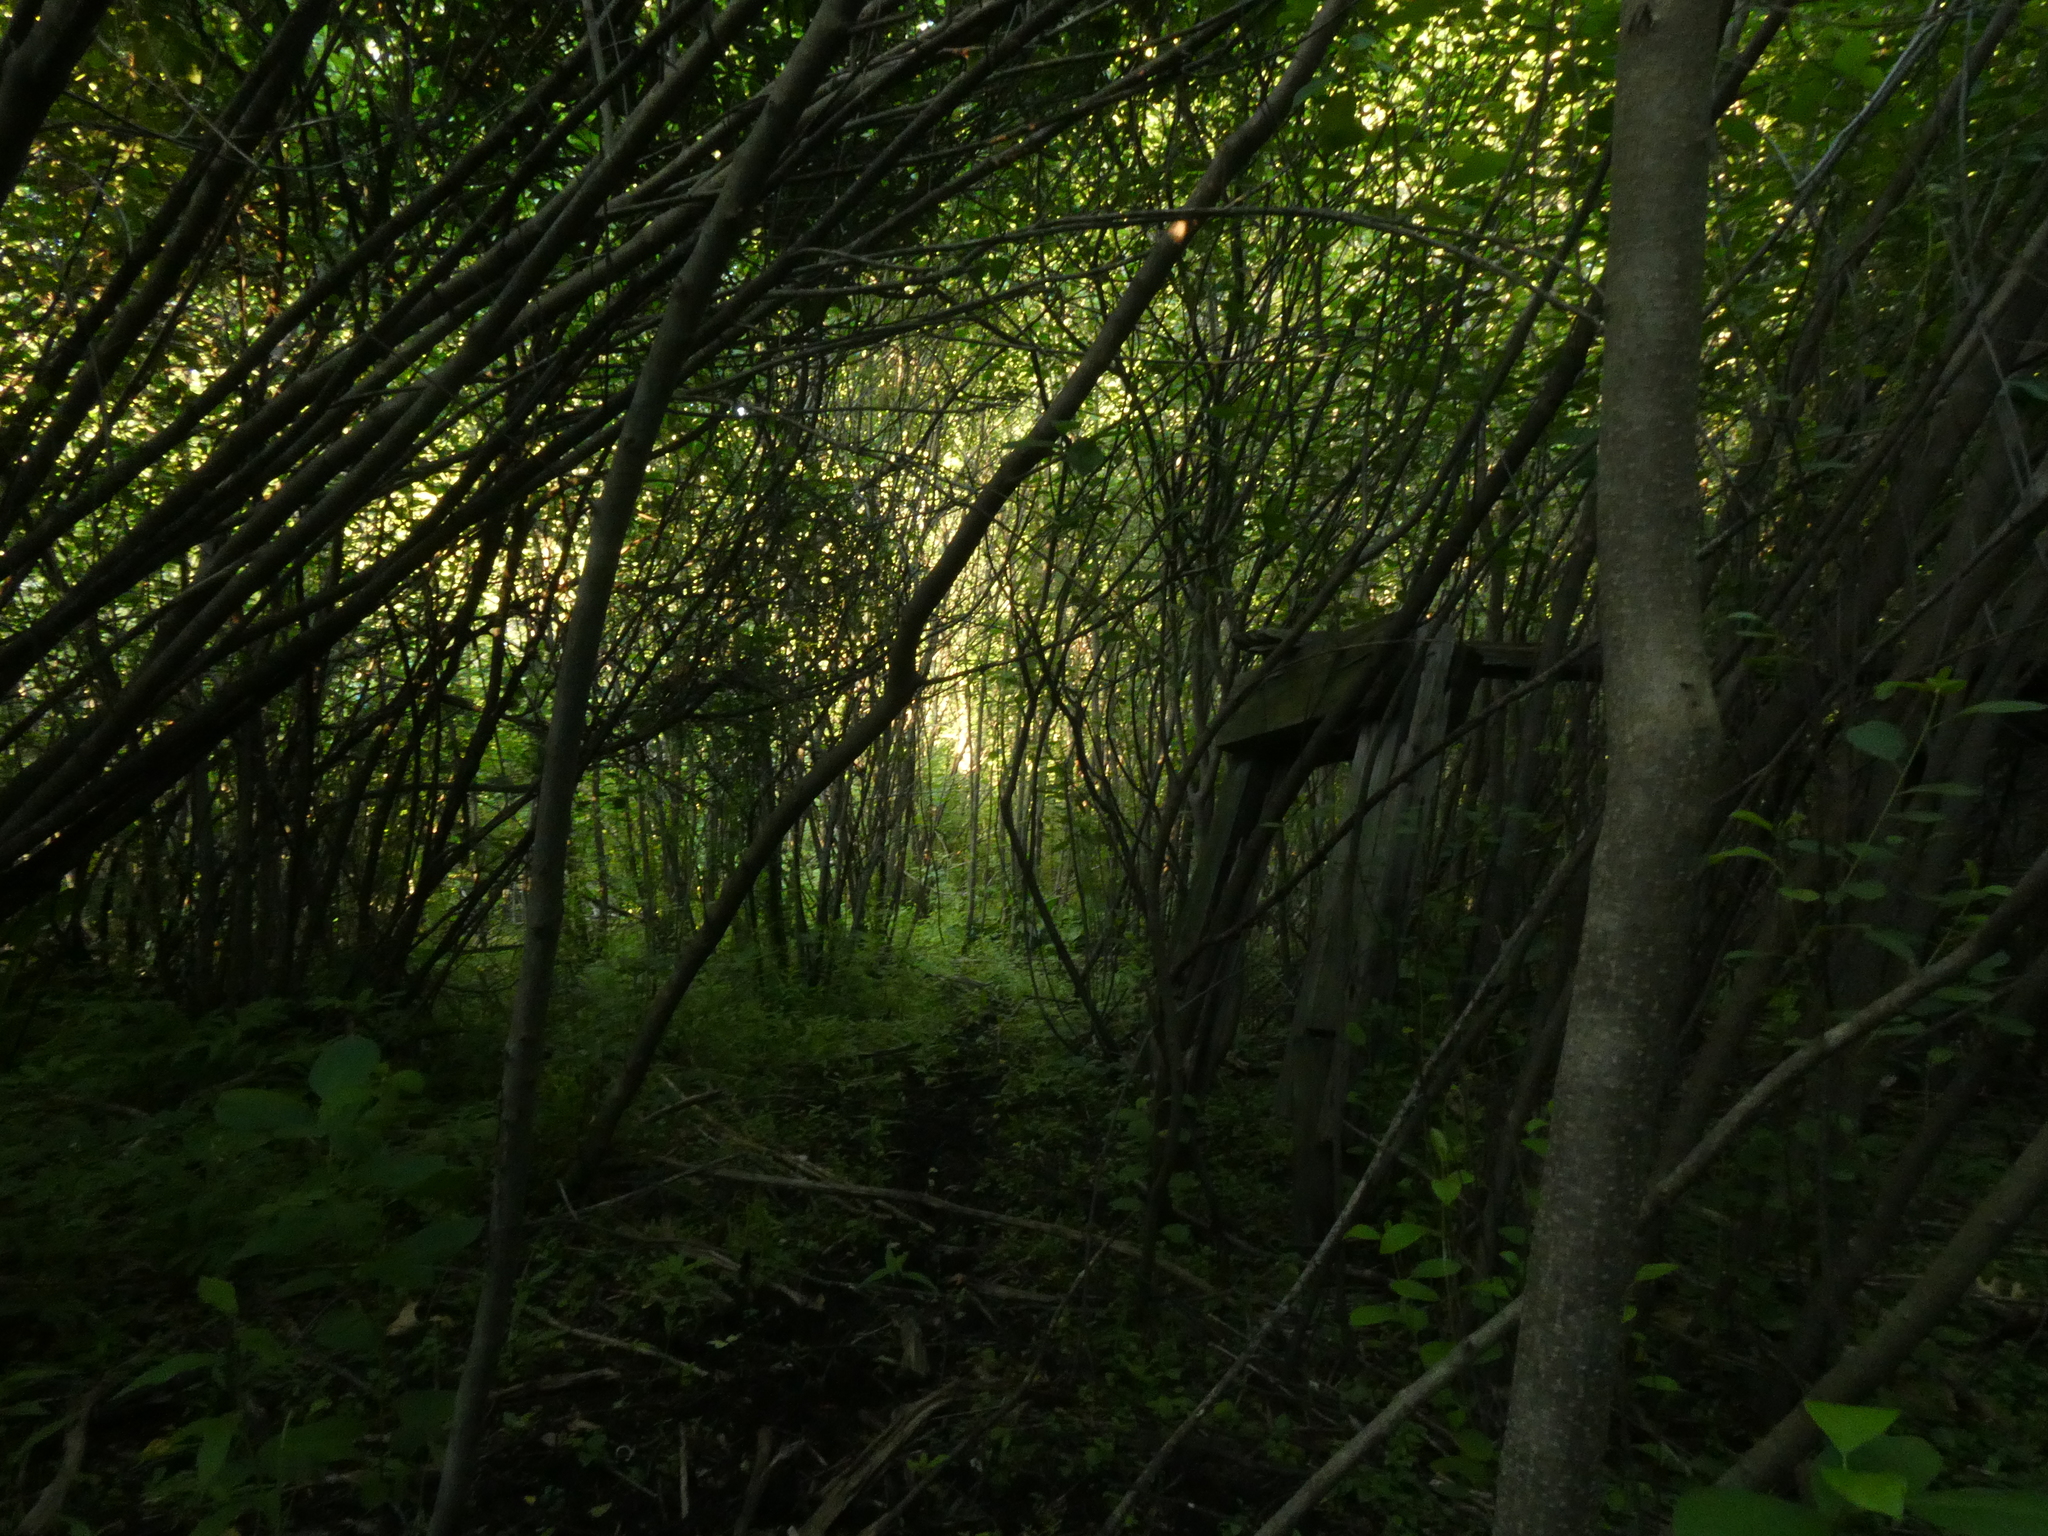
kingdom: Plantae
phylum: Tracheophyta
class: Magnoliopsida
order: Rosales
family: Rhamnaceae
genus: Frangula
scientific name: Frangula alnus
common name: Alder buckthorn
